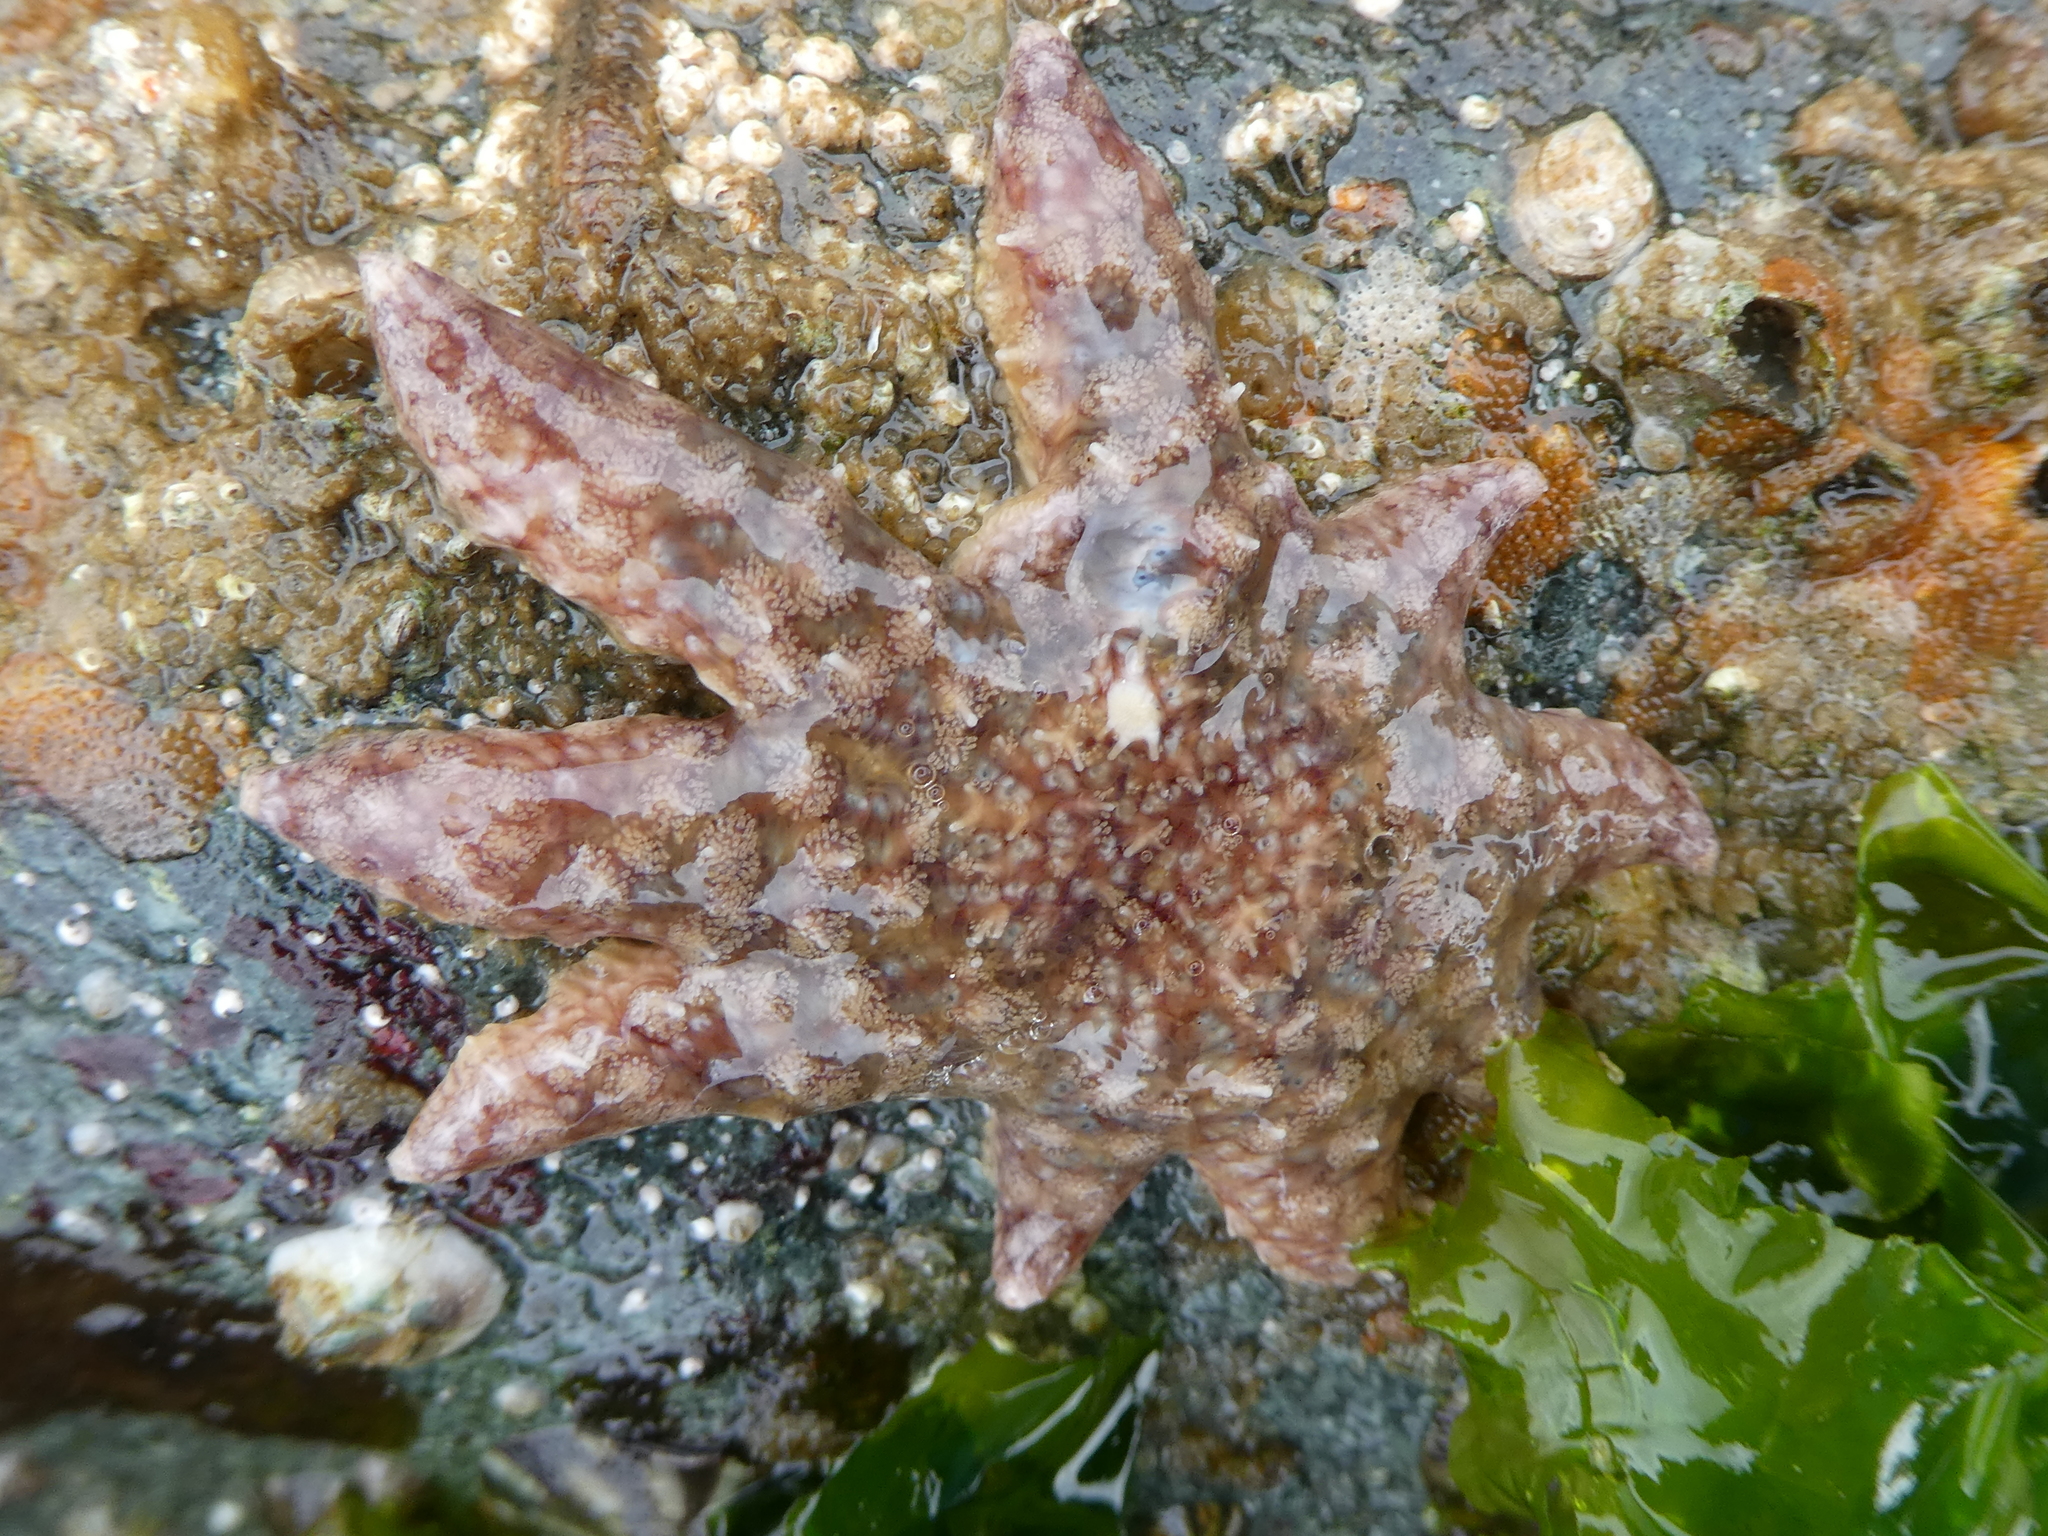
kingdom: Animalia
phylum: Echinodermata
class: Asteroidea
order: Forcipulatida
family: Asteriidae
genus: Pycnopodia
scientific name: Pycnopodia helianthoides
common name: Rag mop
